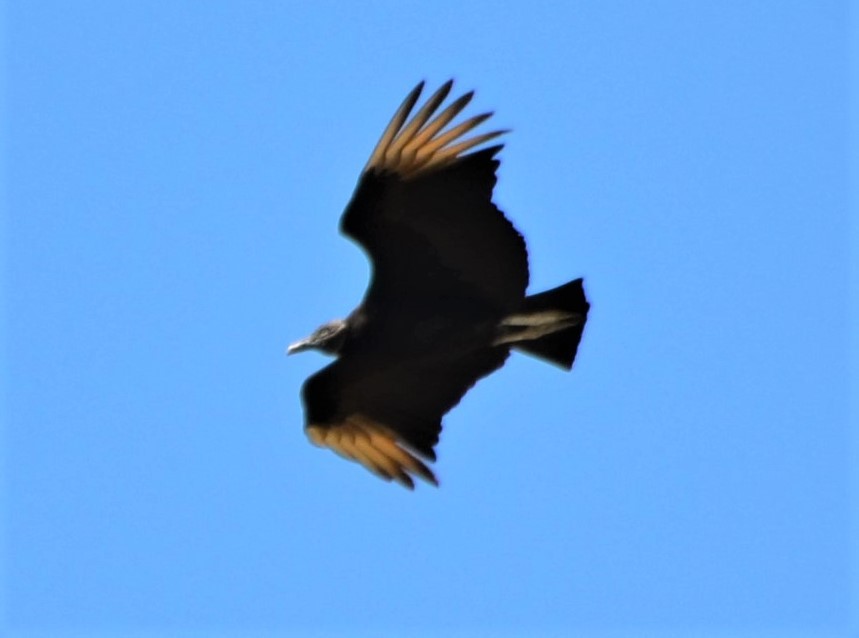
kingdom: Animalia
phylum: Chordata
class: Aves
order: Accipitriformes
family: Cathartidae
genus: Coragyps
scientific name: Coragyps atratus
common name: Black vulture
